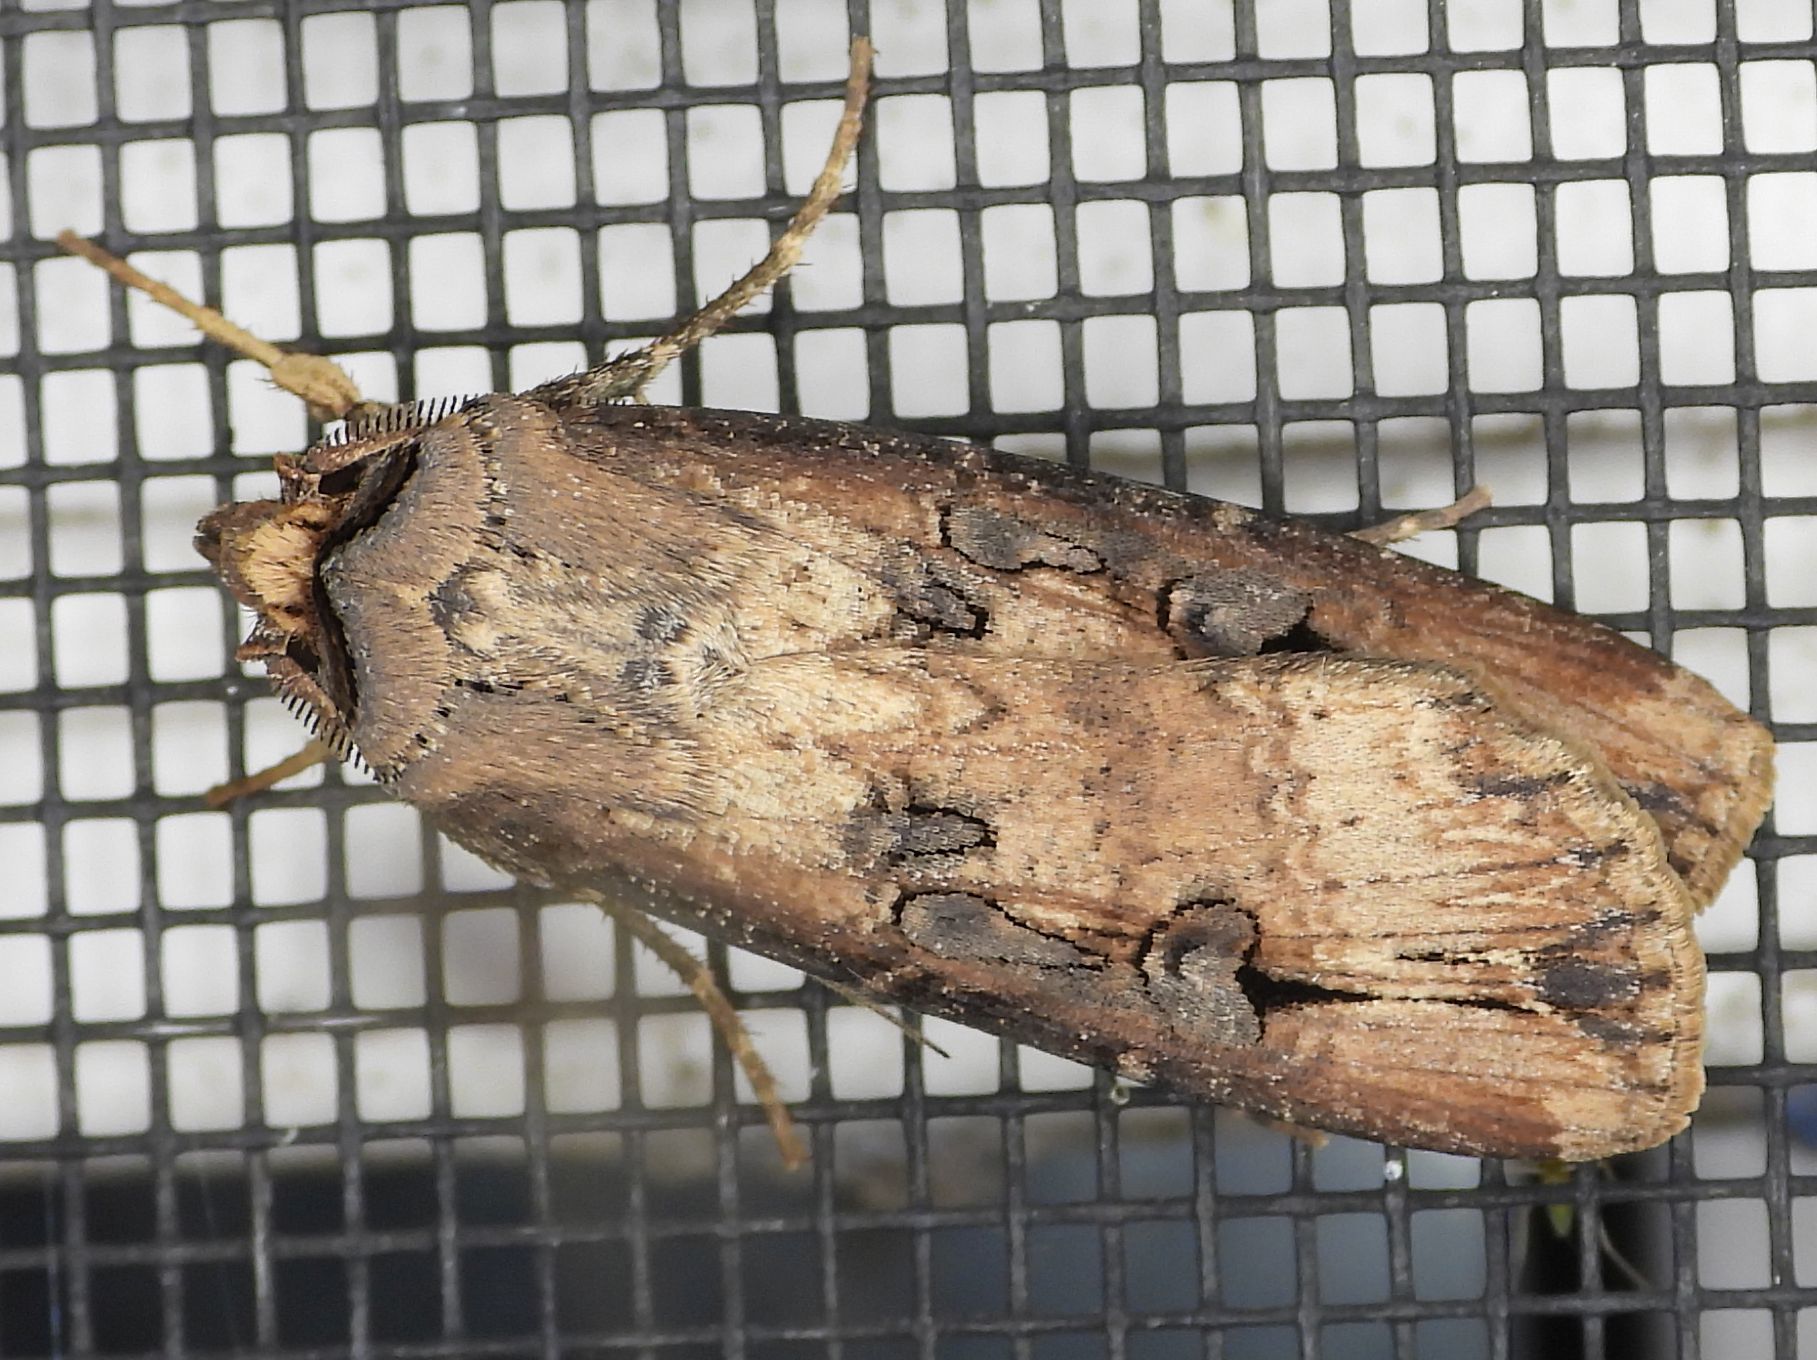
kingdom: Animalia
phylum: Arthropoda
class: Insecta
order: Lepidoptera
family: Noctuidae
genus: Agrotis
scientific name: Agrotis ipsilon
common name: Dark sword-grass
